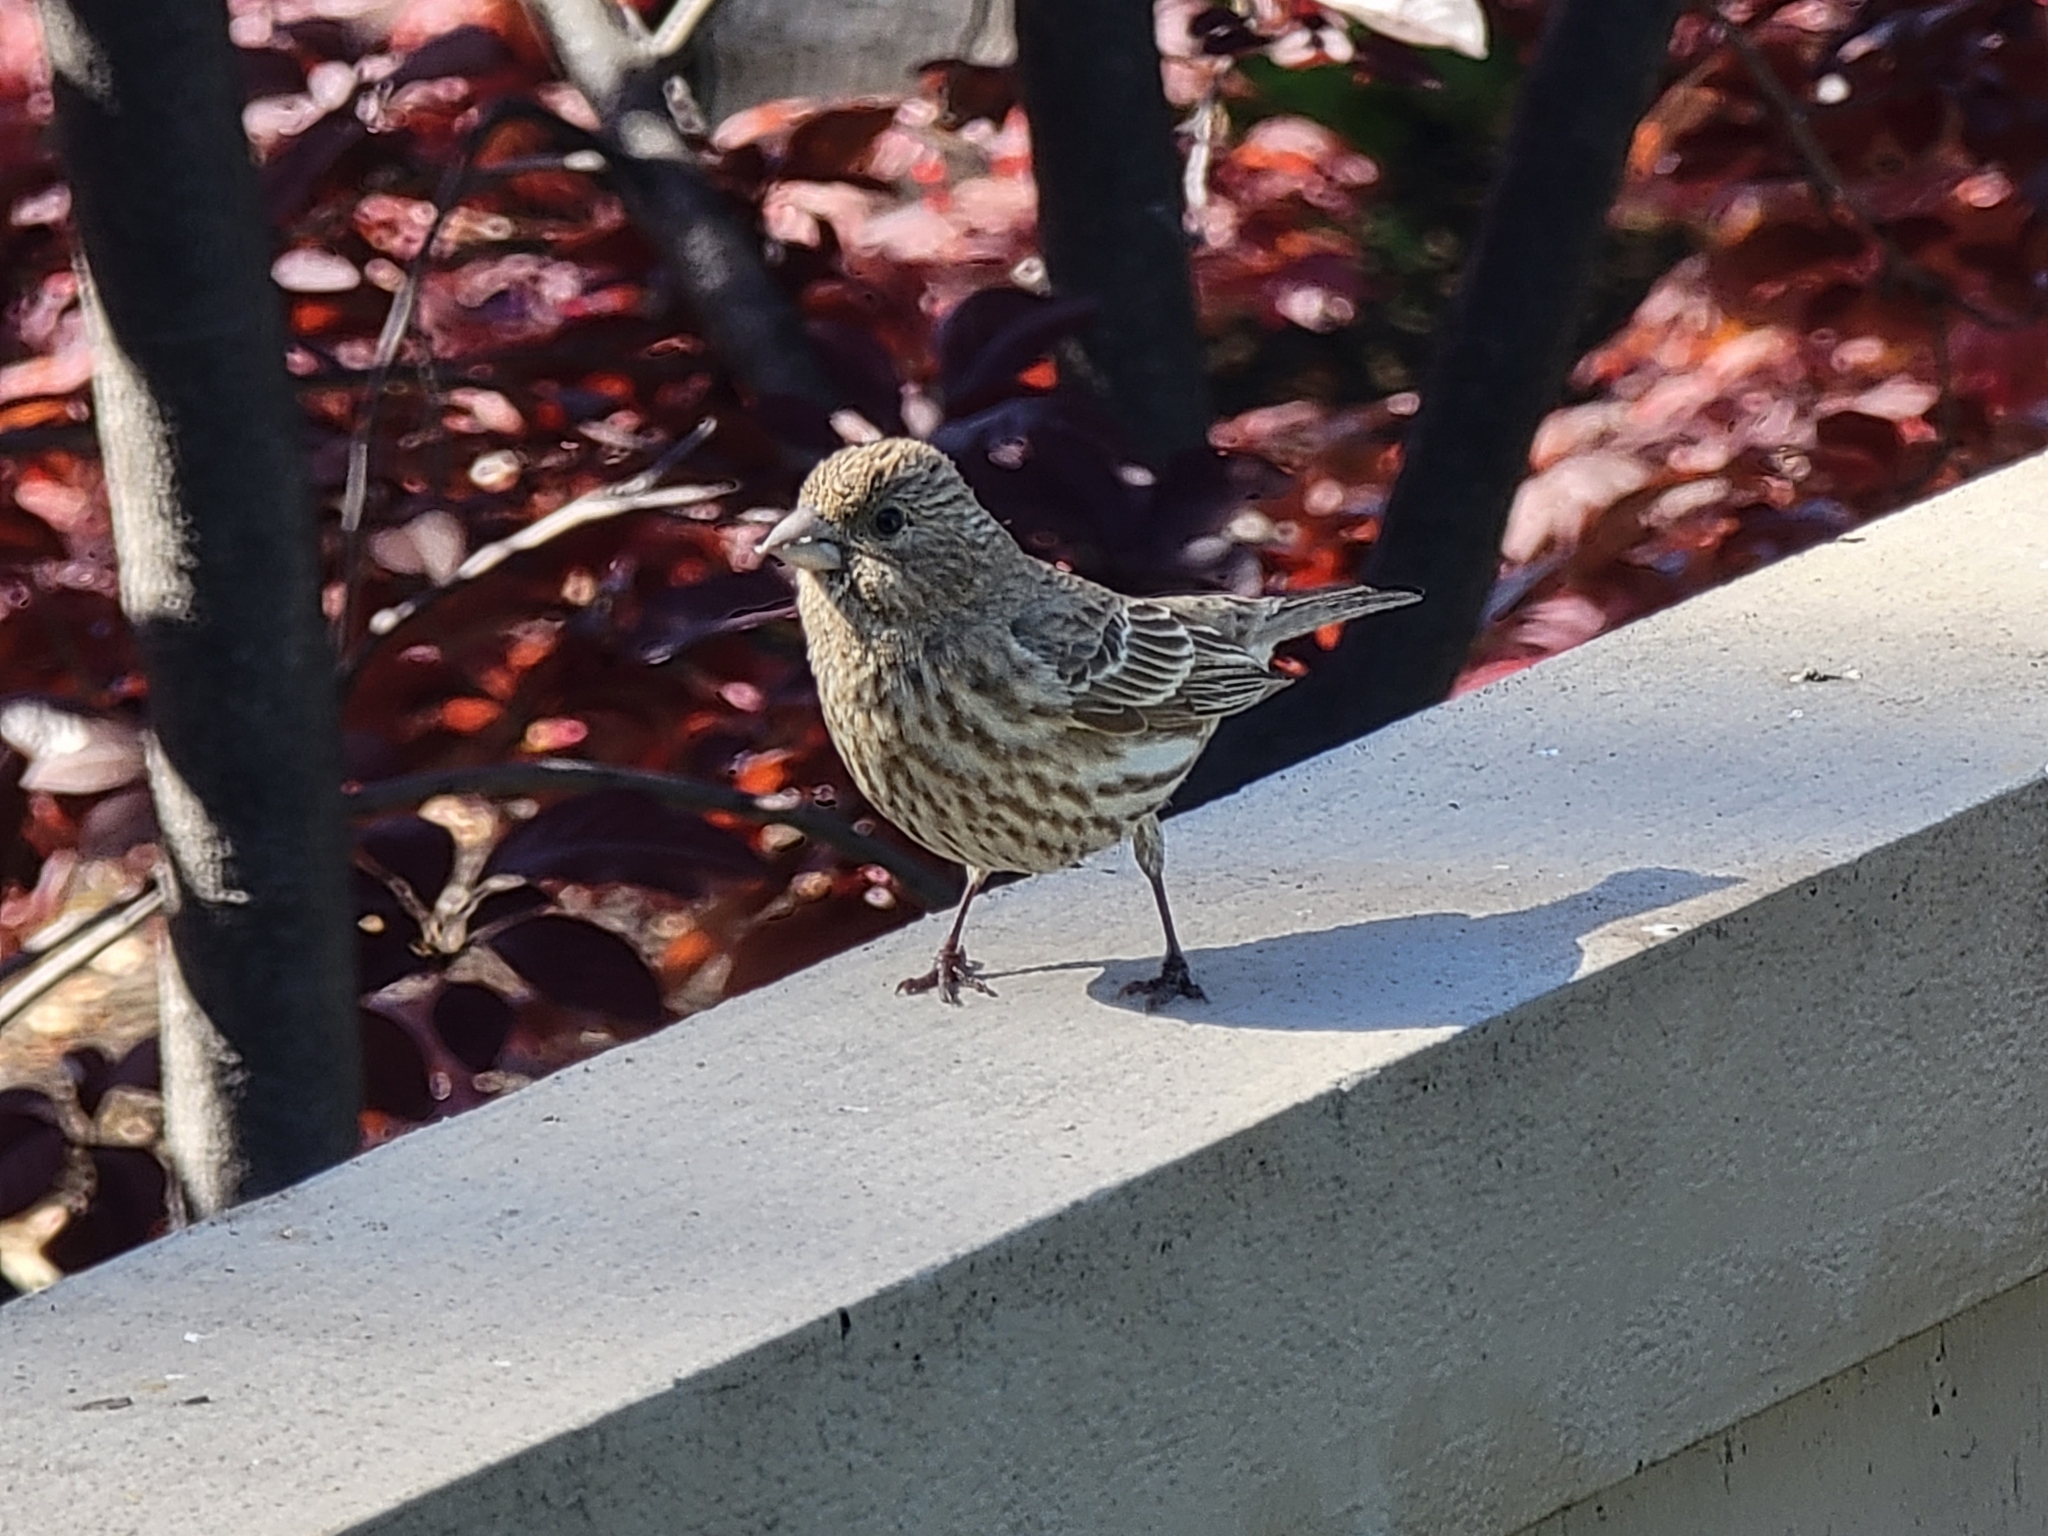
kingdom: Animalia
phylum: Chordata
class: Aves
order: Passeriformes
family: Fringillidae
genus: Haemorhous
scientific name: Haemorhous mexicanus
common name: House finch
